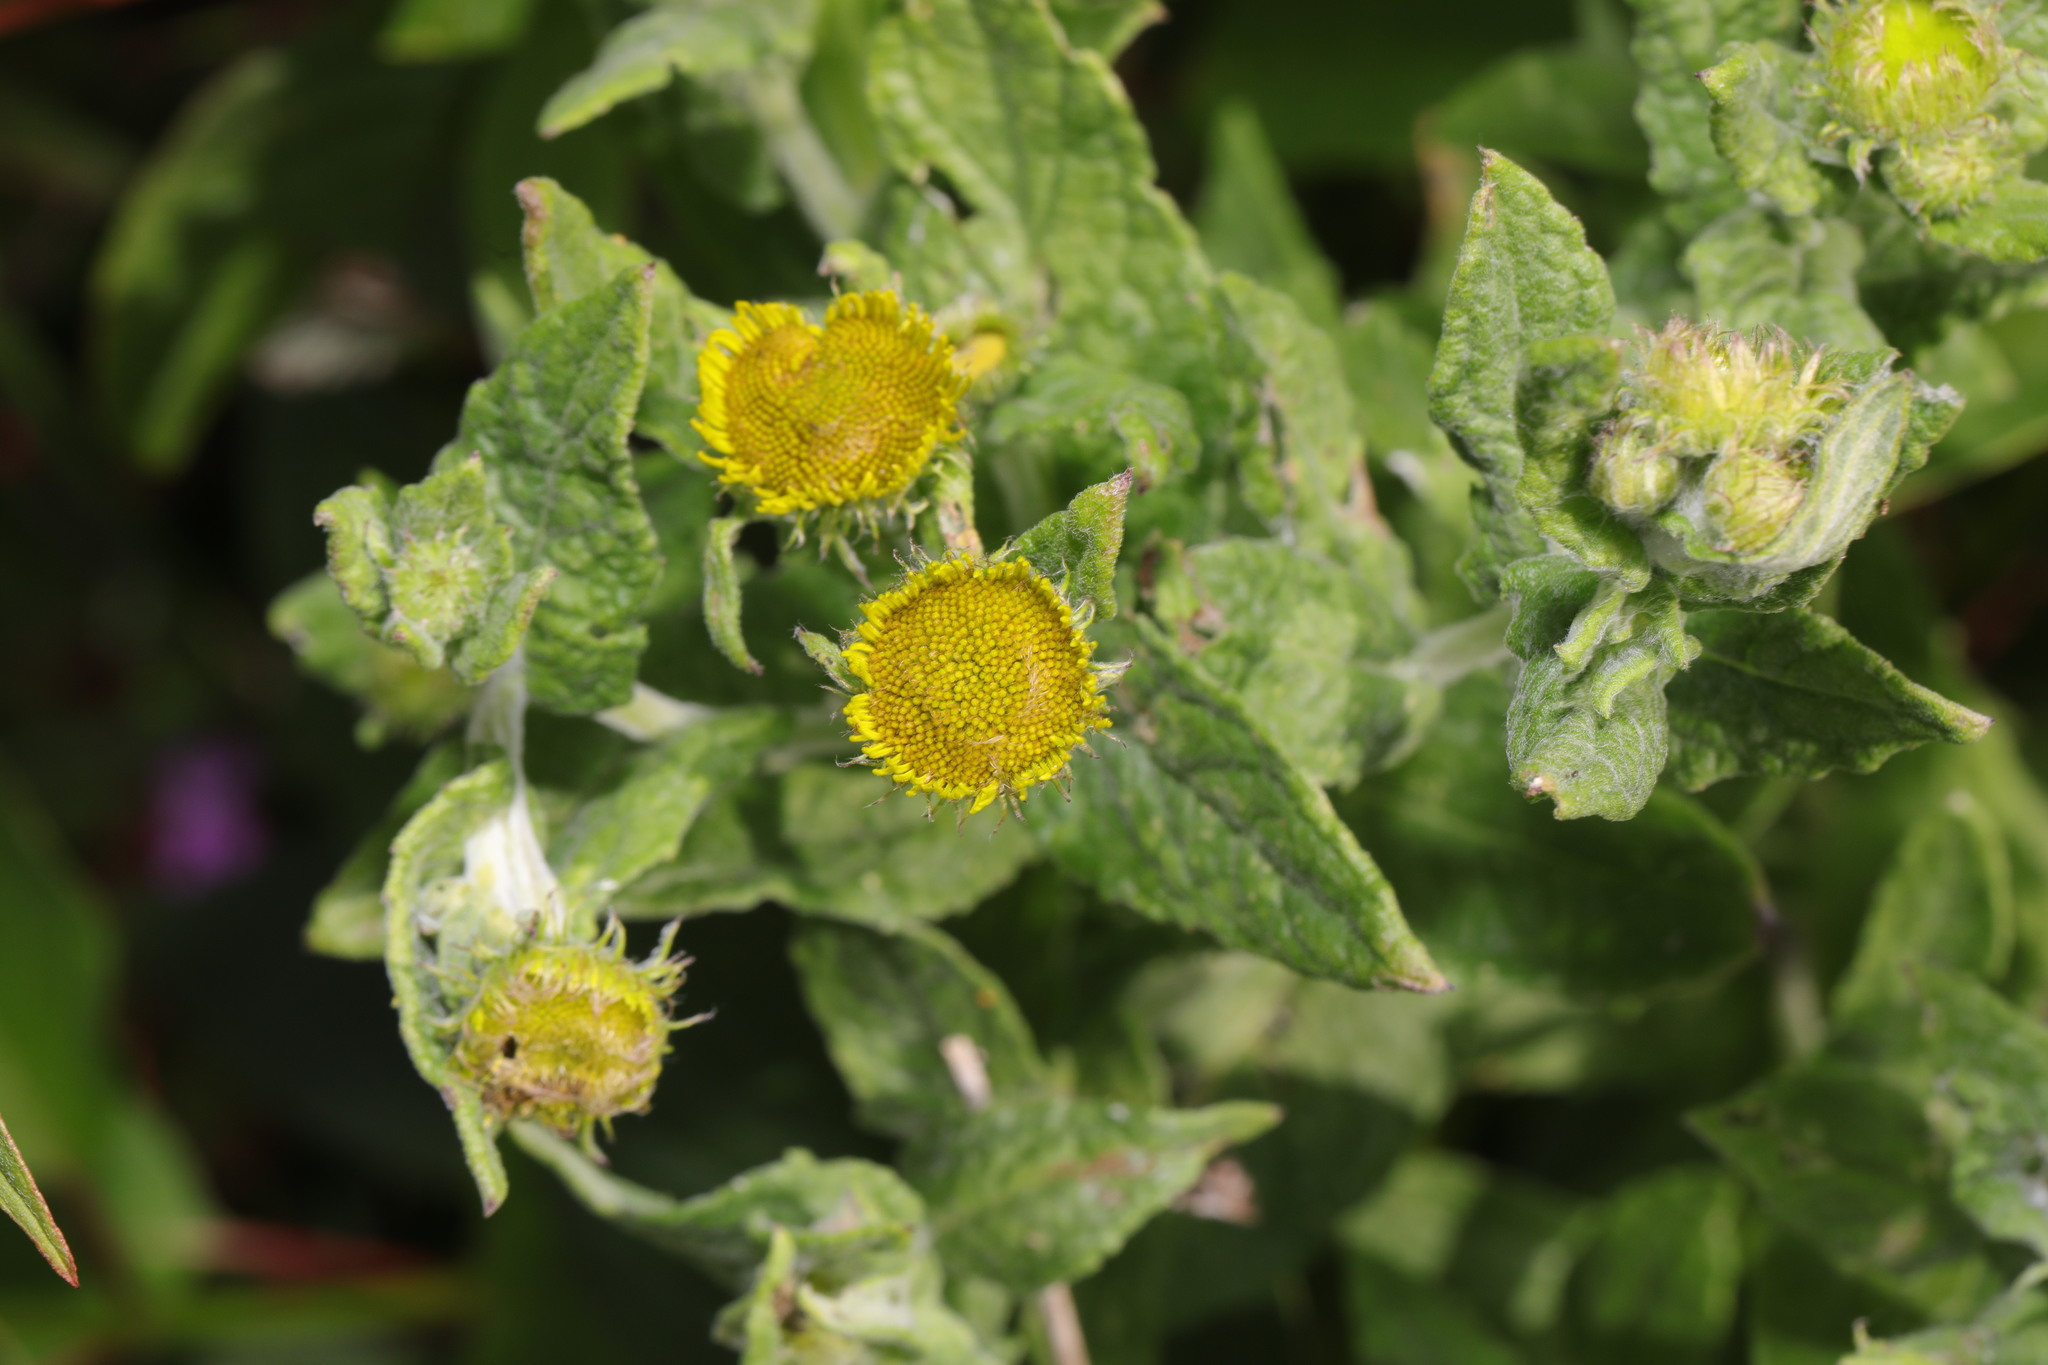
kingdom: Plantae
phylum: Tracheophyta
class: Magnoliopsida
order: Asterales
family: Asteraceae
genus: Pulicaria
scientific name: Pulicaria dysenterica
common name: Common fleabane
